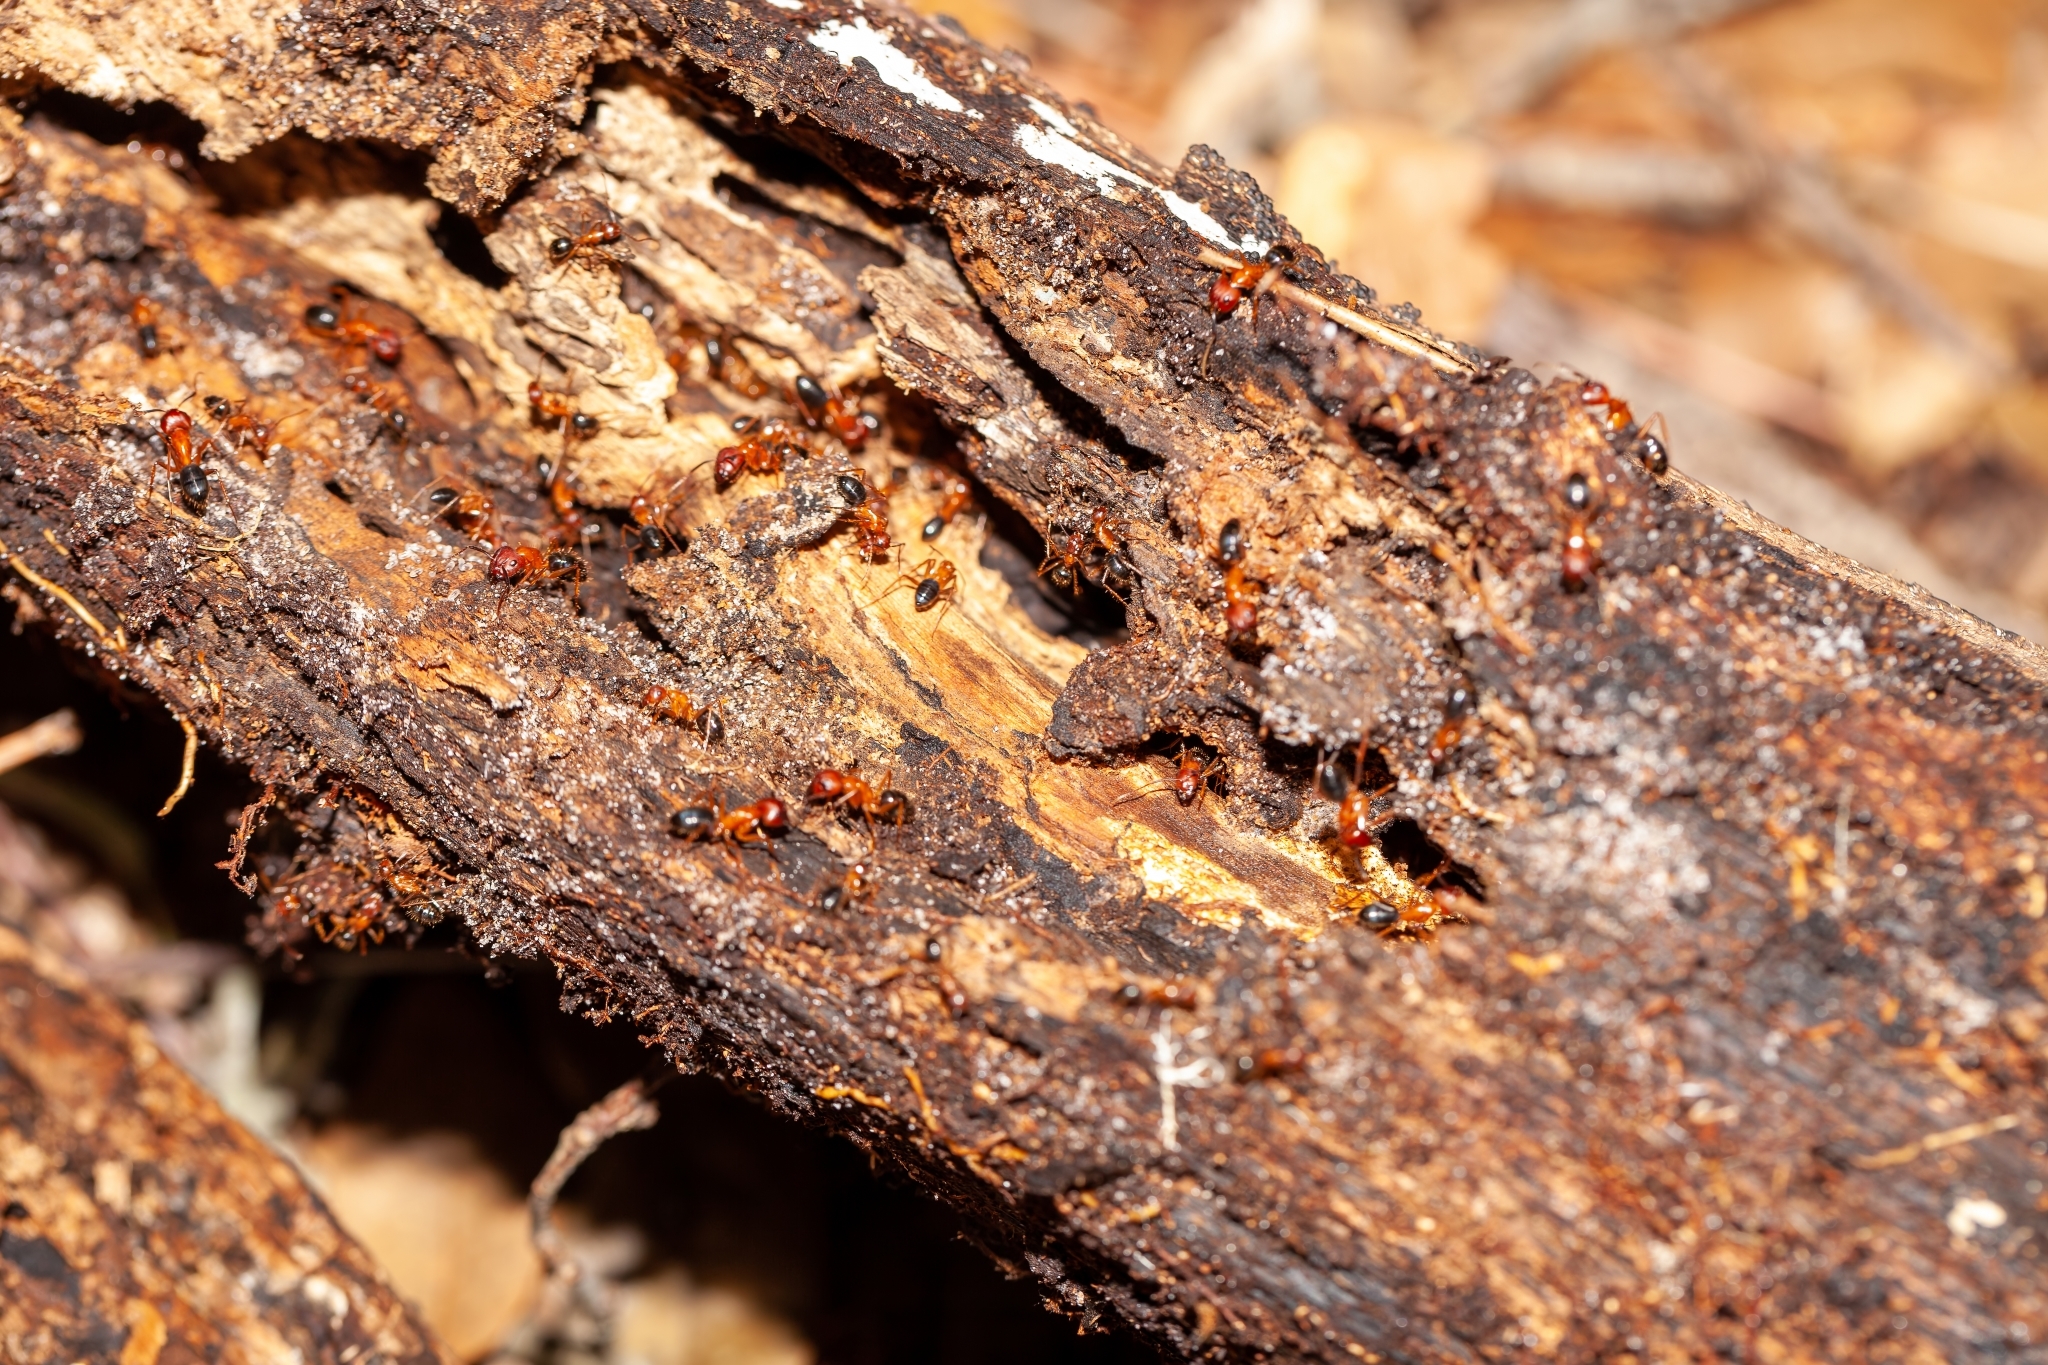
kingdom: Animalia
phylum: Arthropoda
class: Insecta
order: Hymenoptera
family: Formicidae
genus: Camponotus
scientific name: Camponotus floridanus
